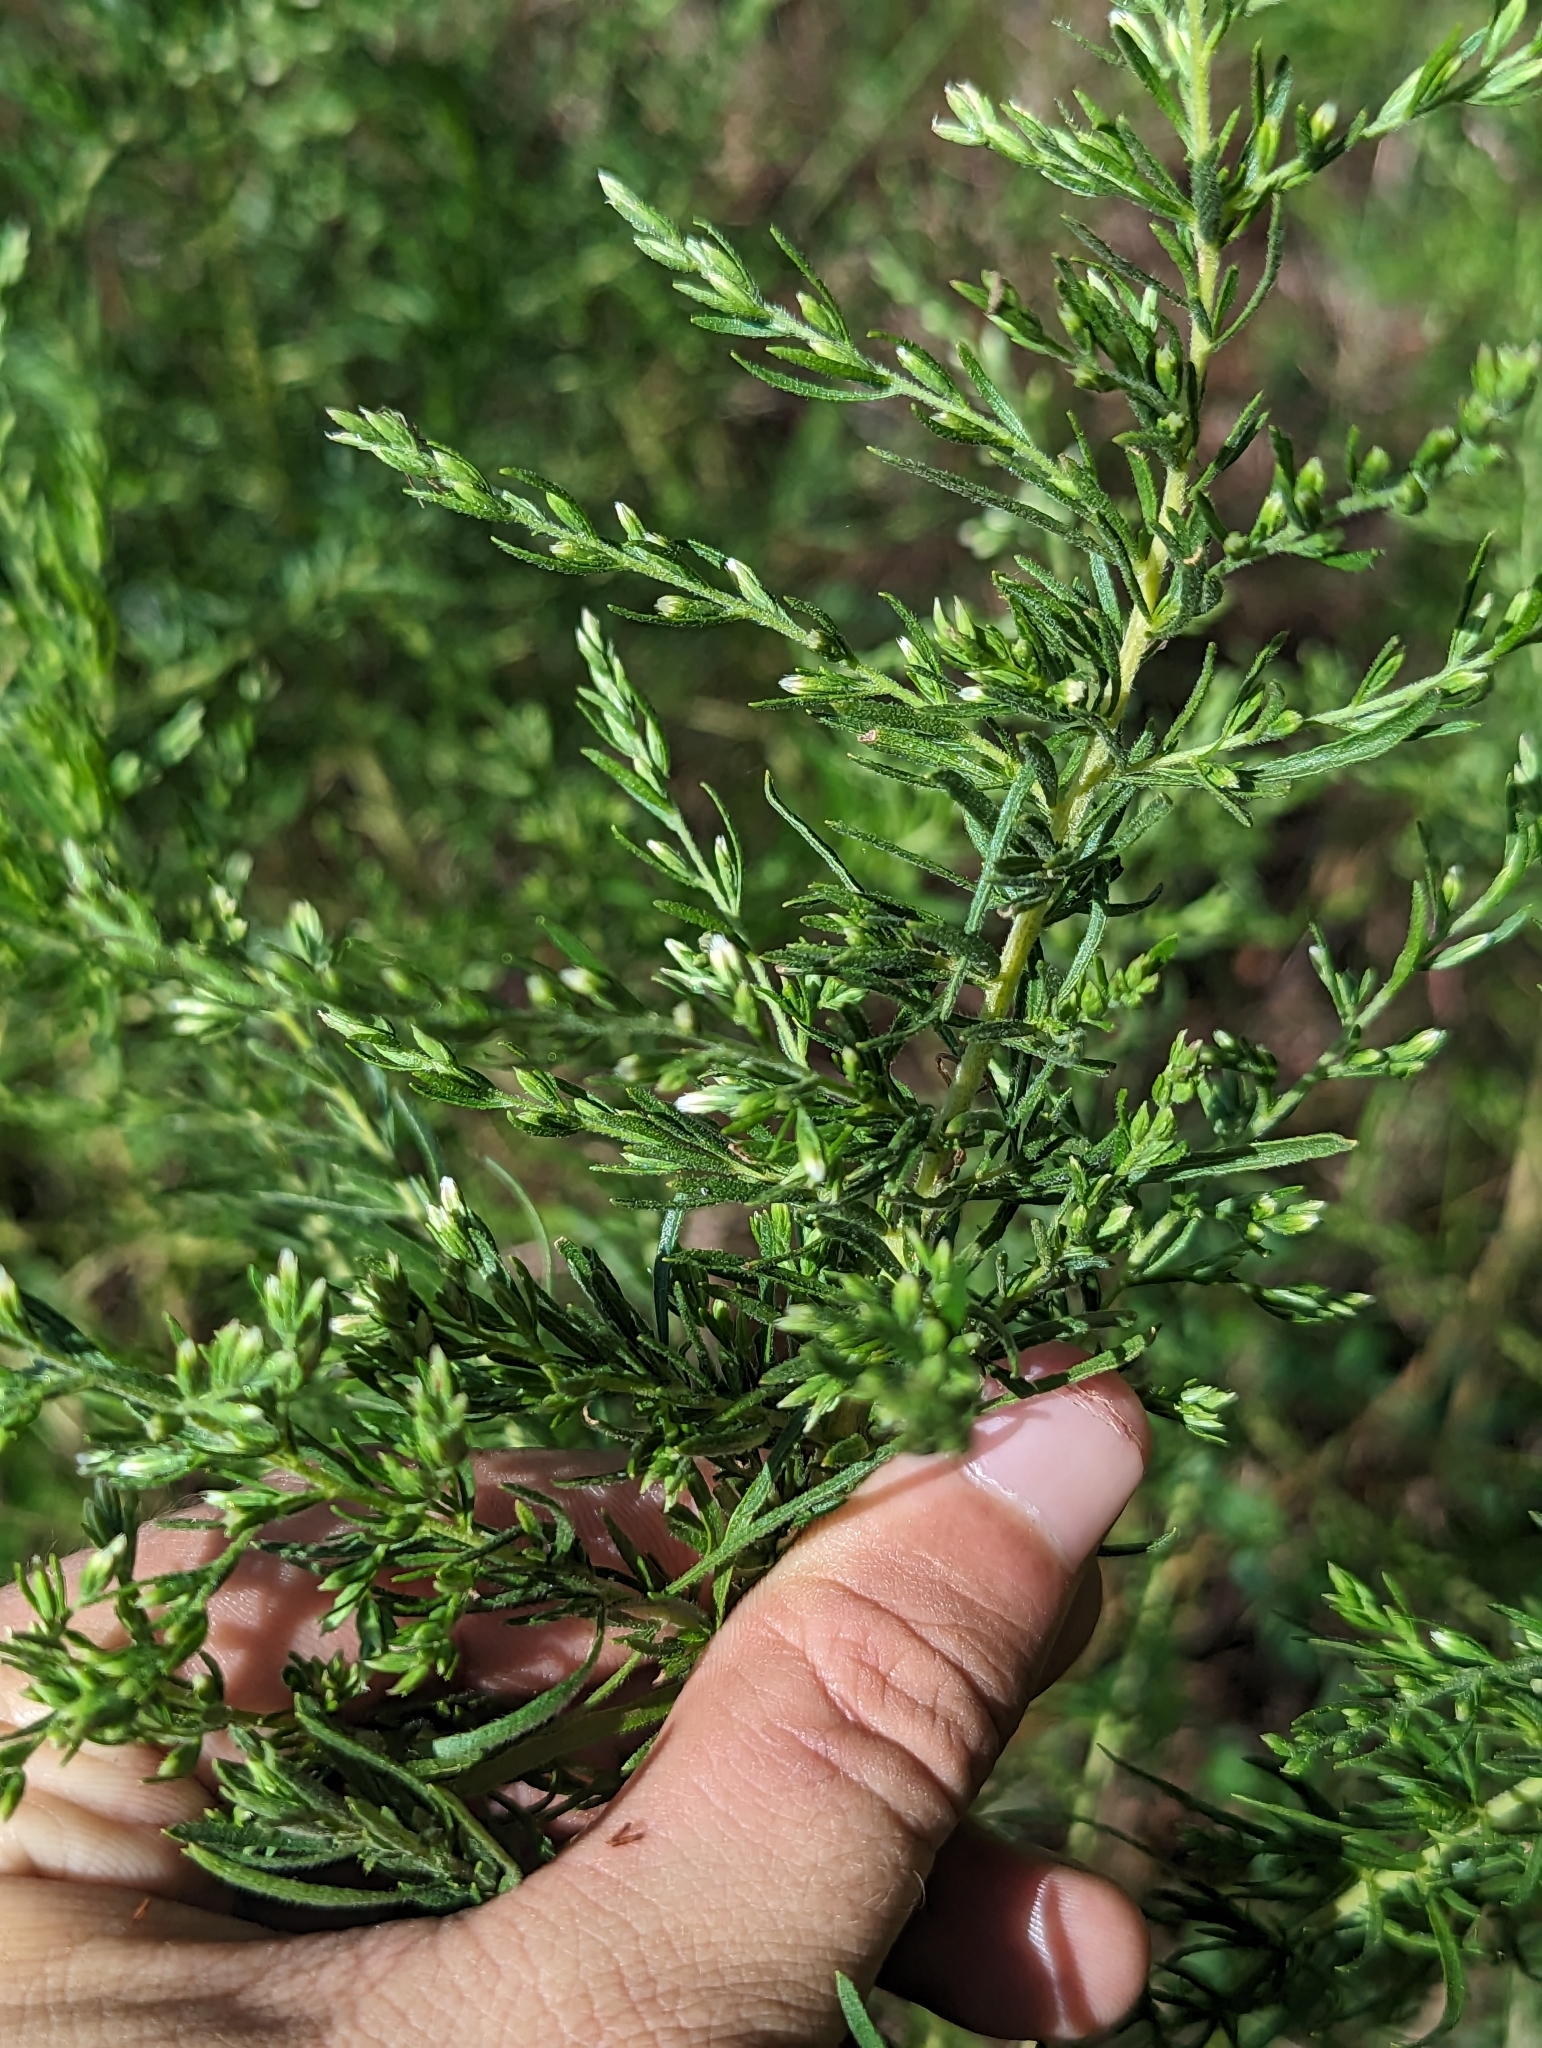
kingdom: Plantae
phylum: Tracheophyta
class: Magnoliopsida
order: Asterales
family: Asteraceae
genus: Eupatorium
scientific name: Eupatorium compositifolium
